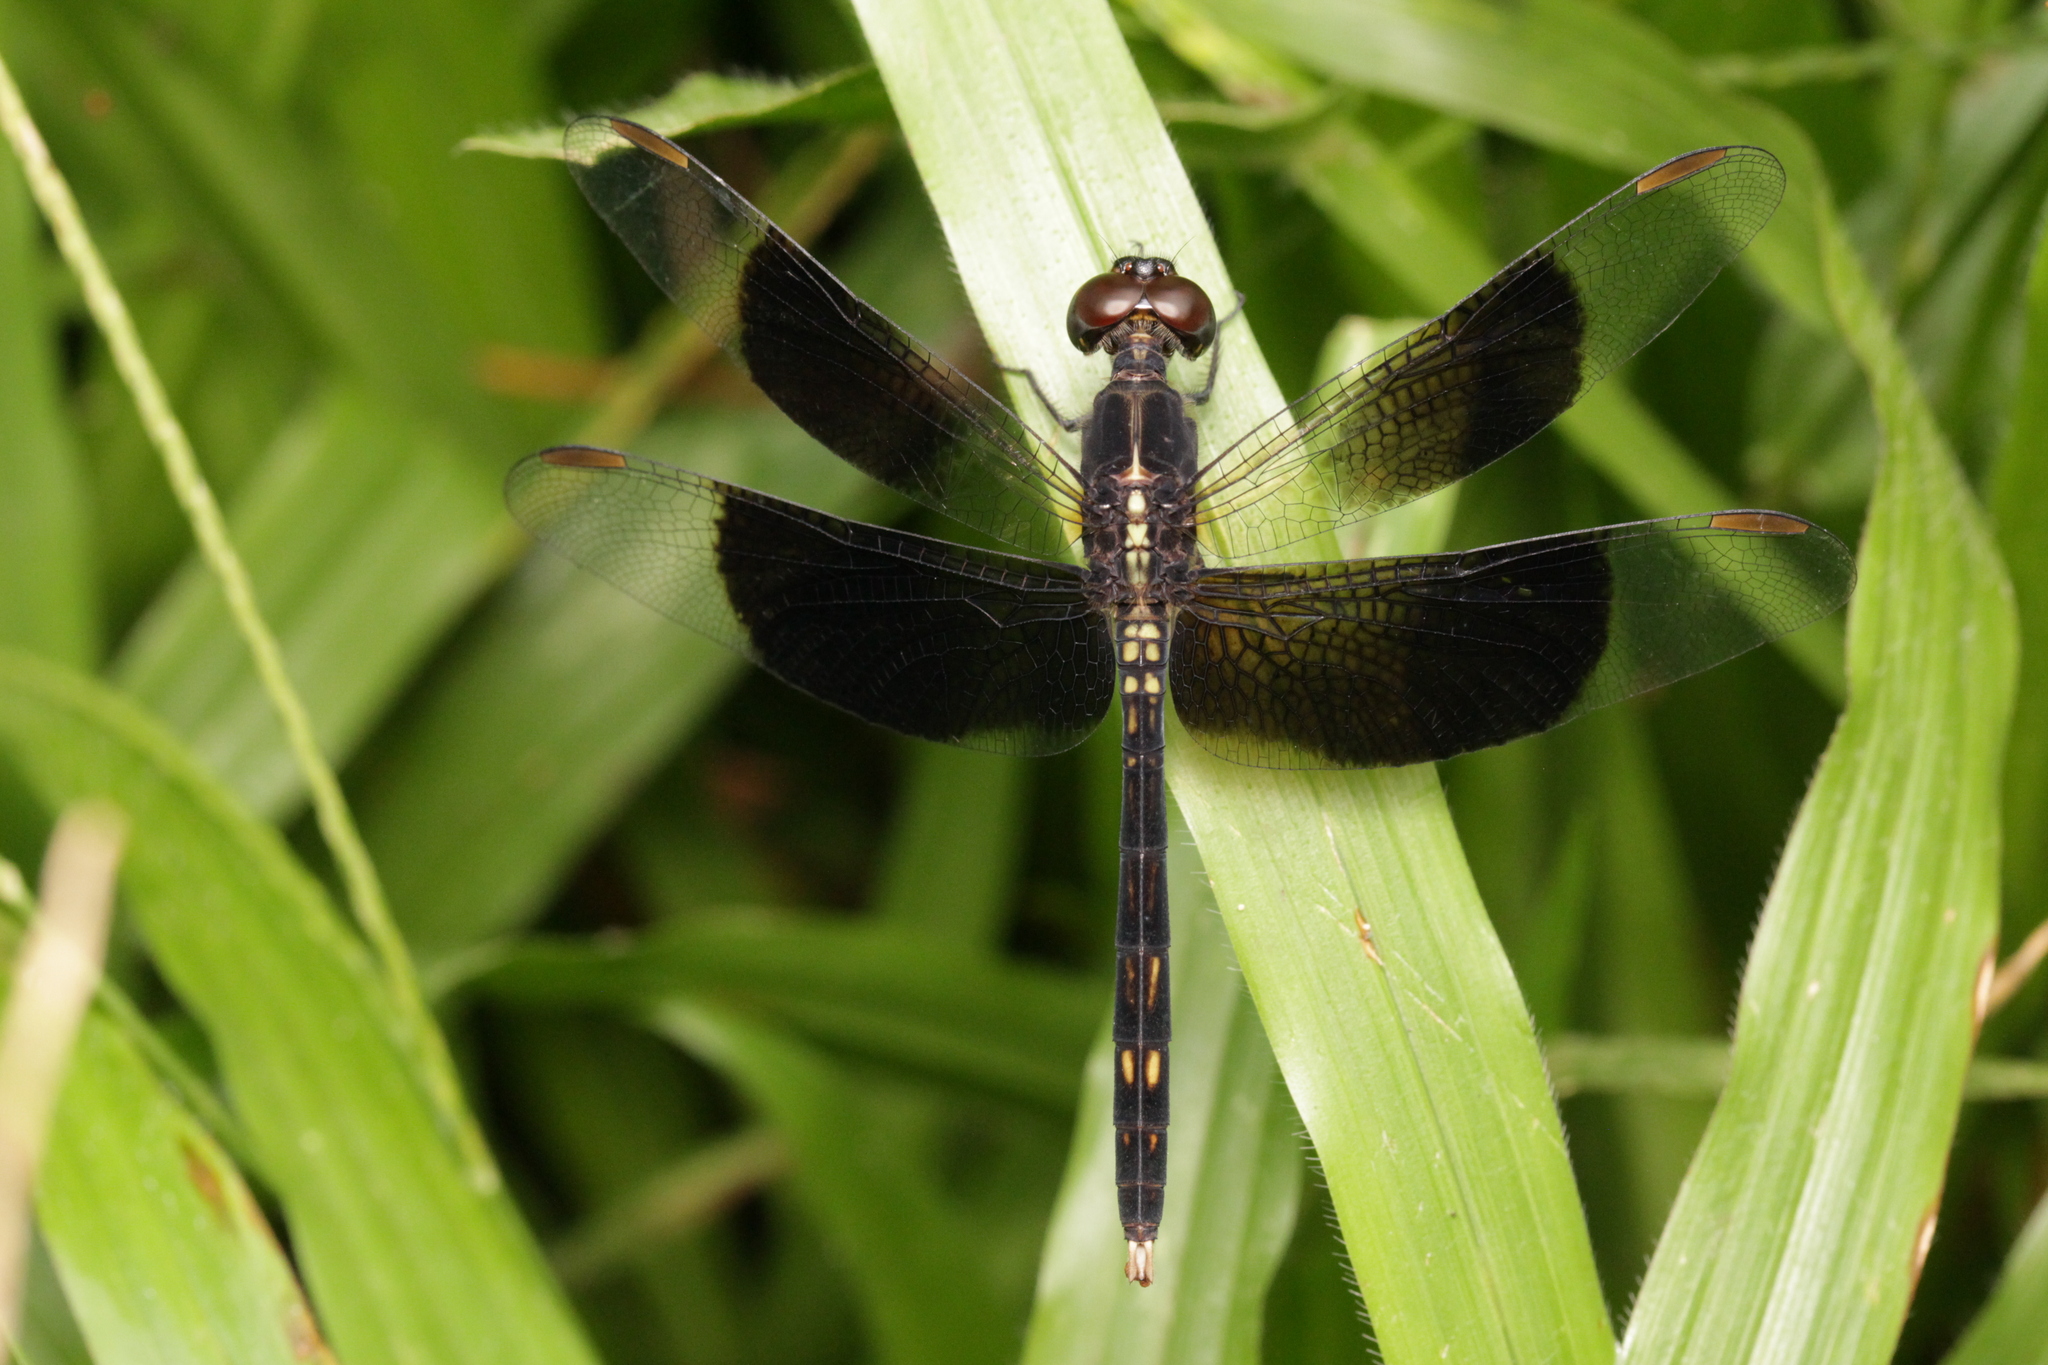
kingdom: Animalia
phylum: Arthropoda
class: Insecta
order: Odonata
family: Libellulidae
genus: Erythrodiplax
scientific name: Erythrodiplax funerea
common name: Black-winged dragonlet
